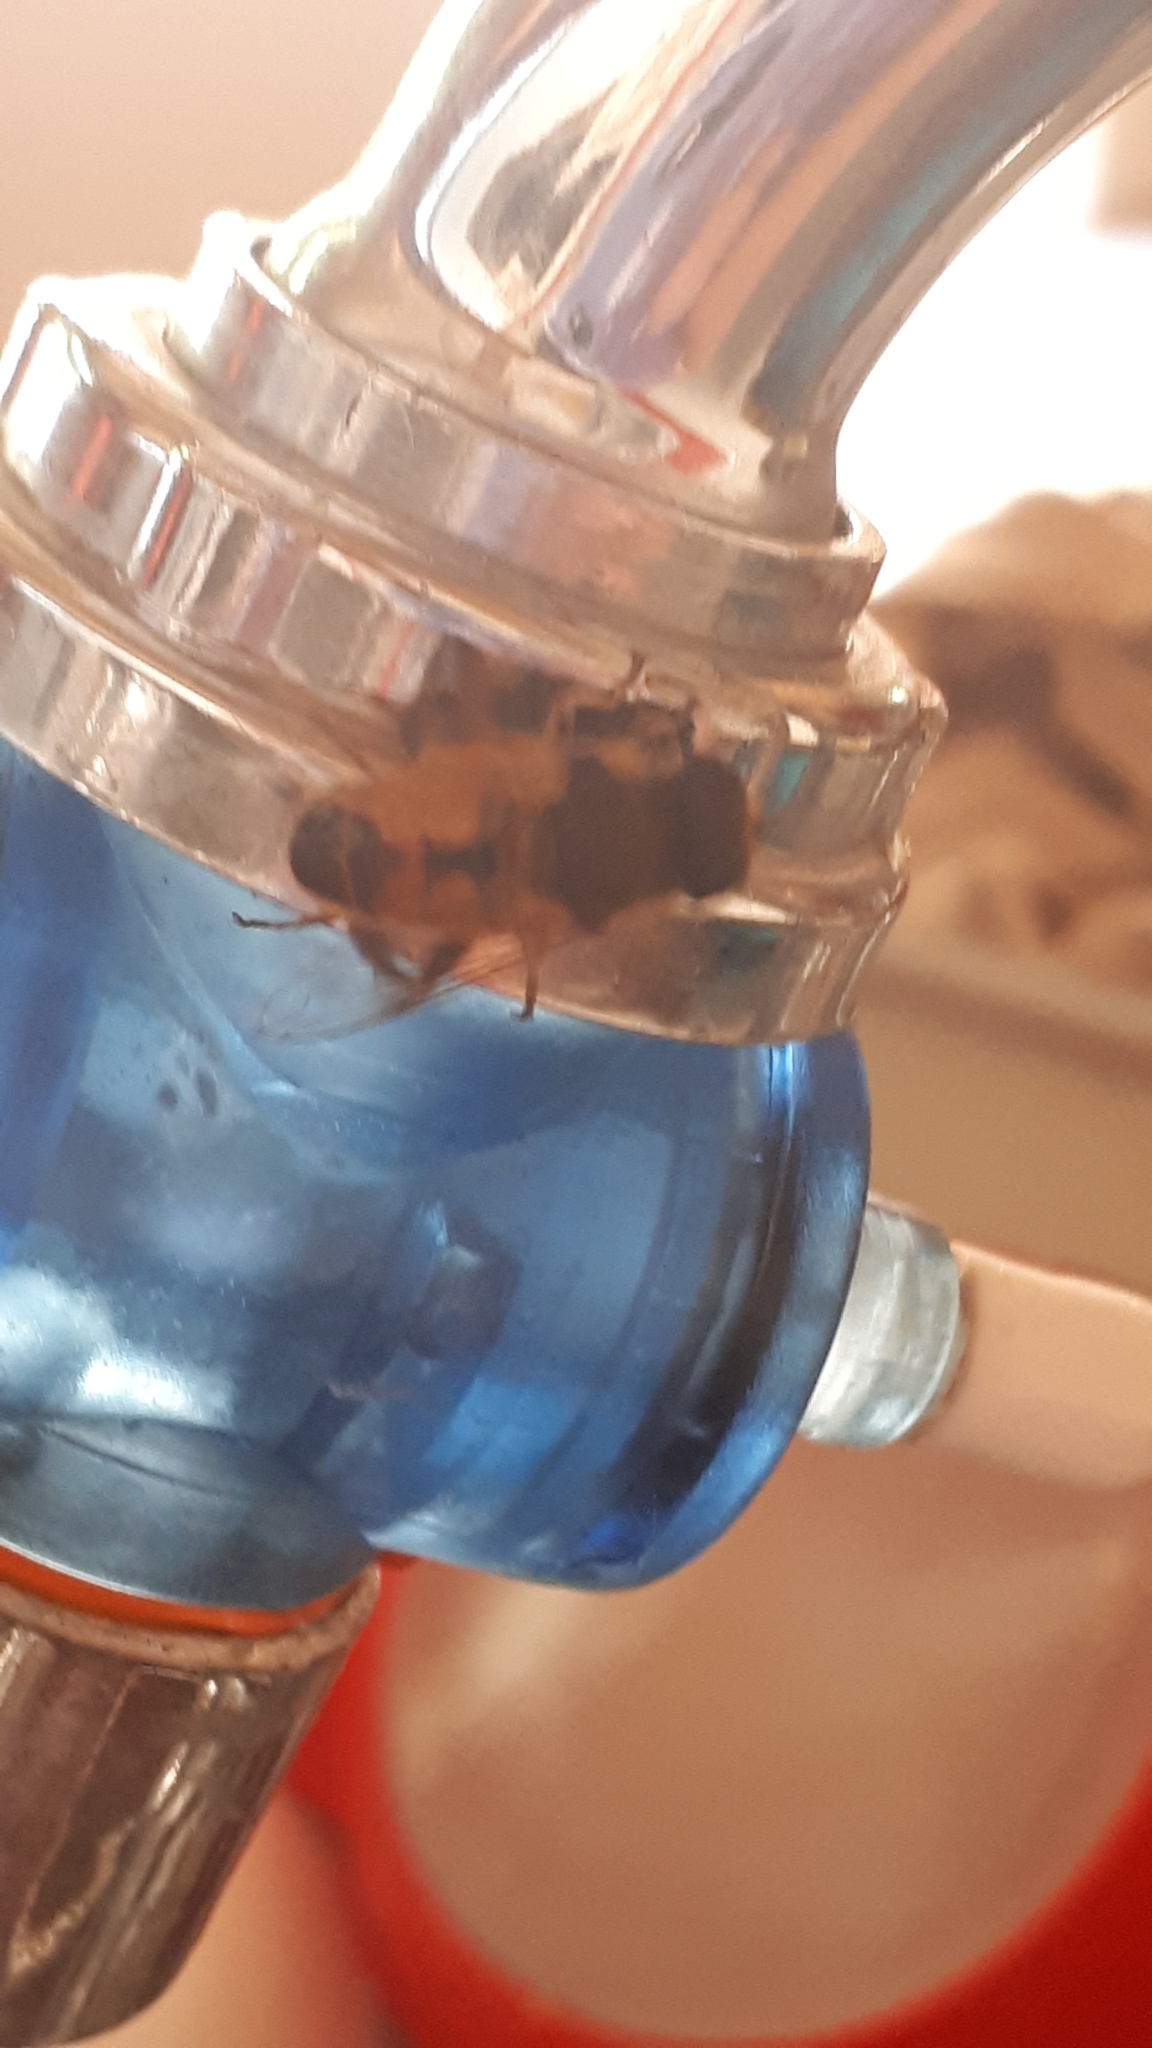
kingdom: Animalia
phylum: Arthropoda
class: Insecta
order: Diptera
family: Syrphidae
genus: Eristalis
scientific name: Eristalis tenax
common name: Drone fly
